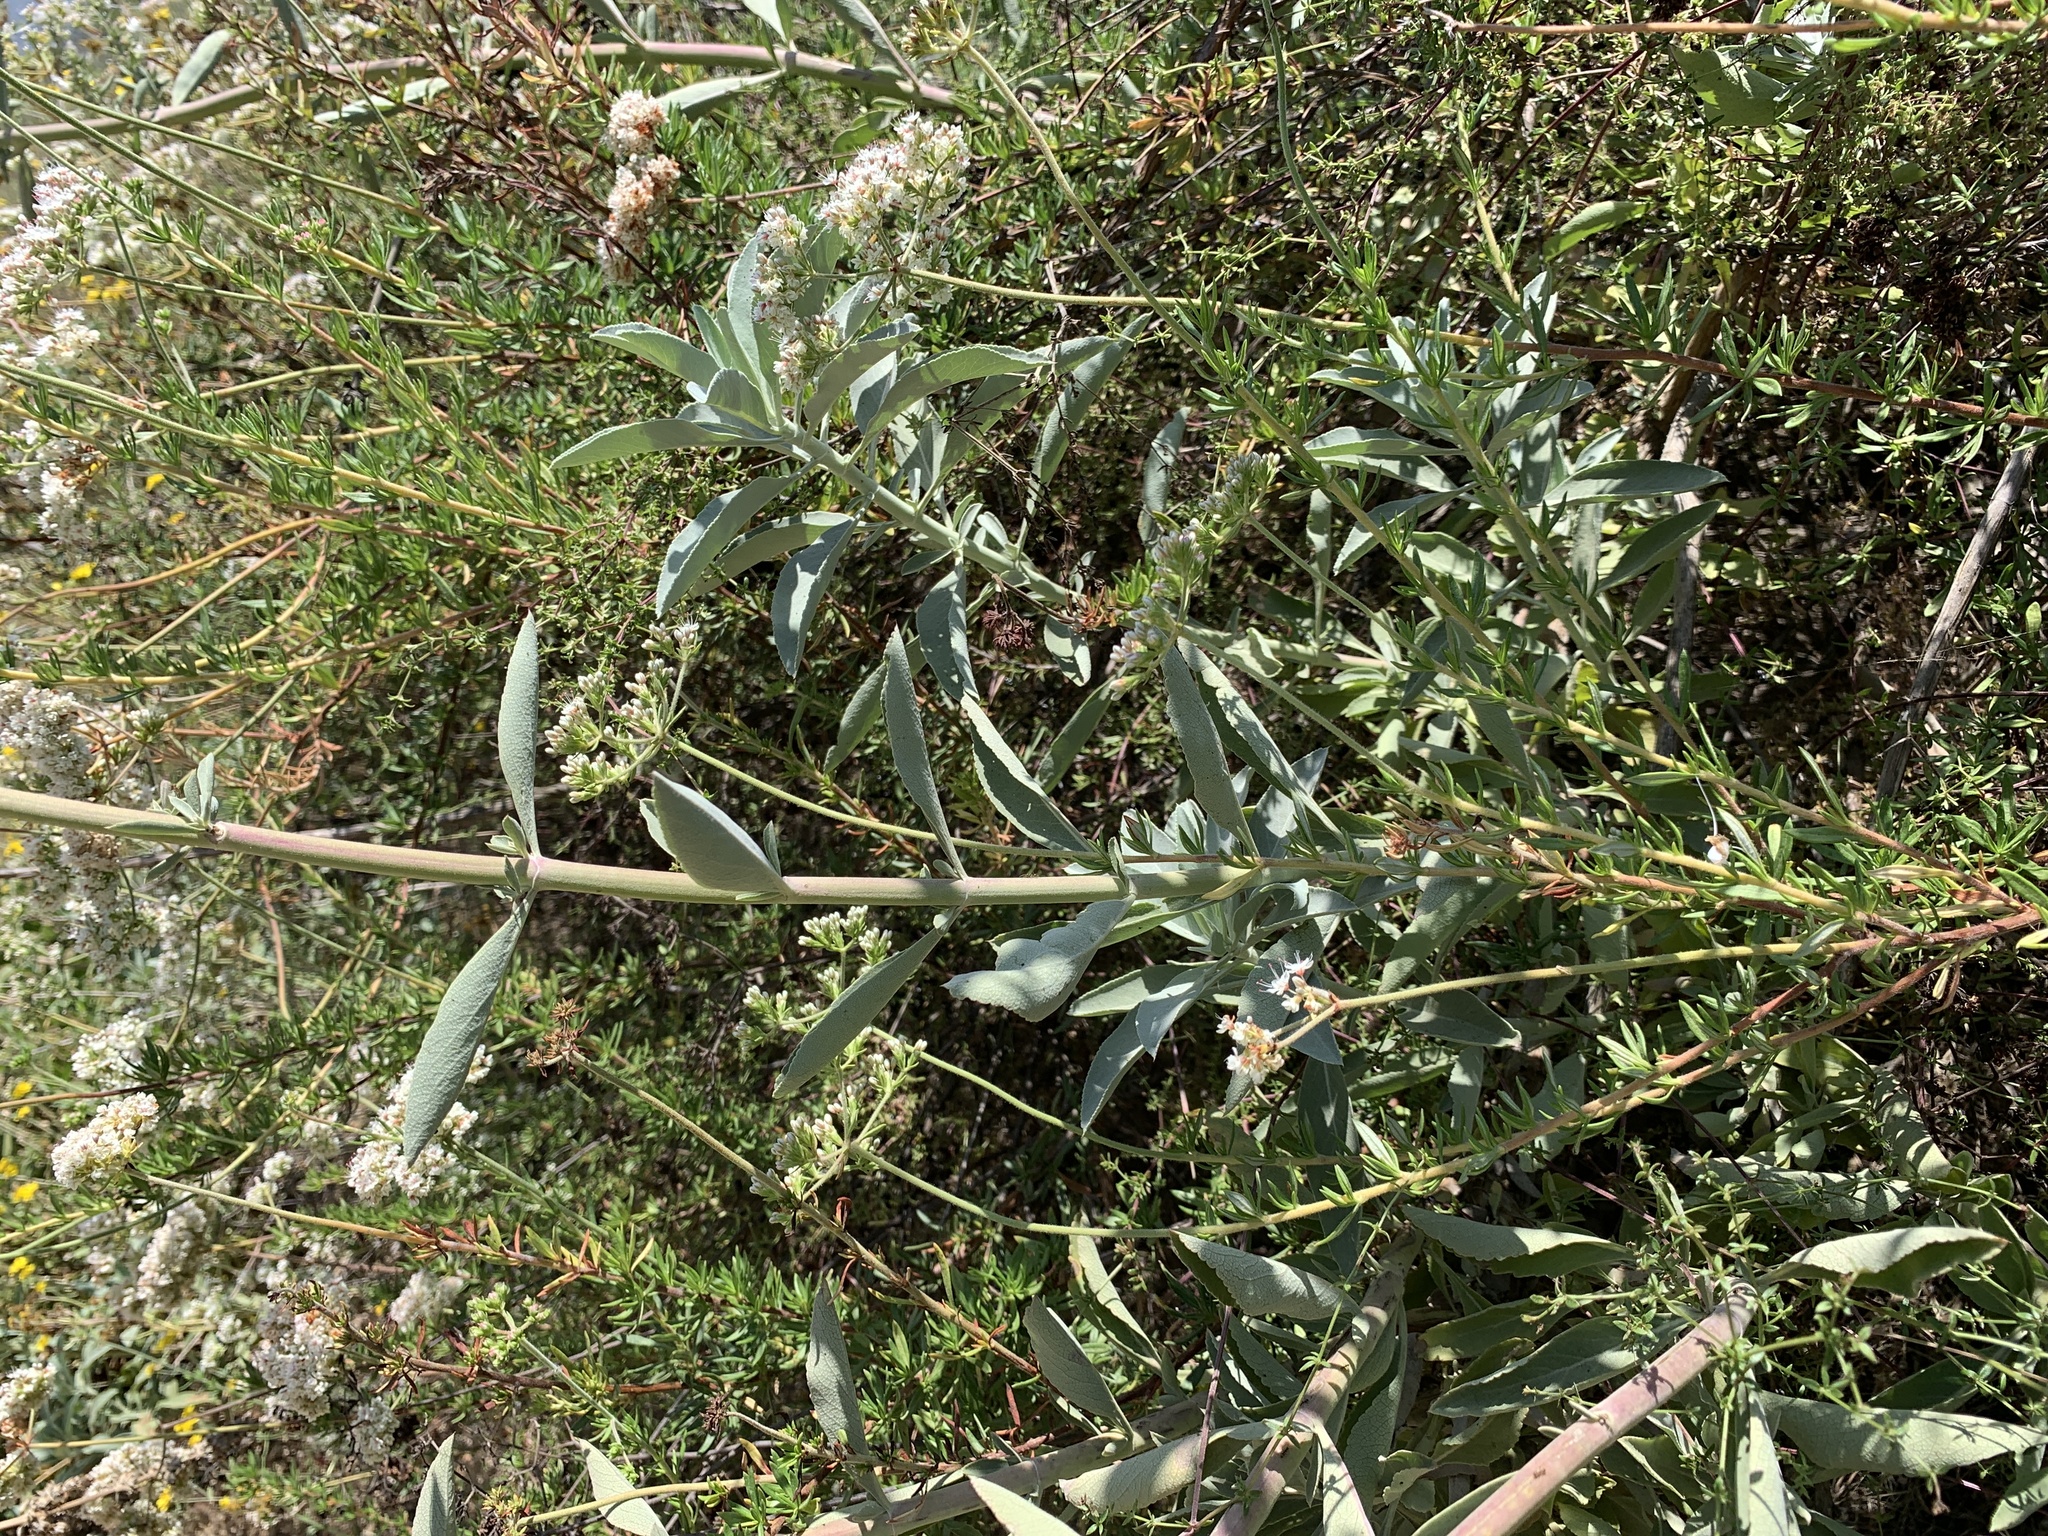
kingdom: Plantae
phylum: Tracheophyta
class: Magnoliopsida
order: Lamiales
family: Lamiaceae
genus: Salvia
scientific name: Salvia apiana
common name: White sage
